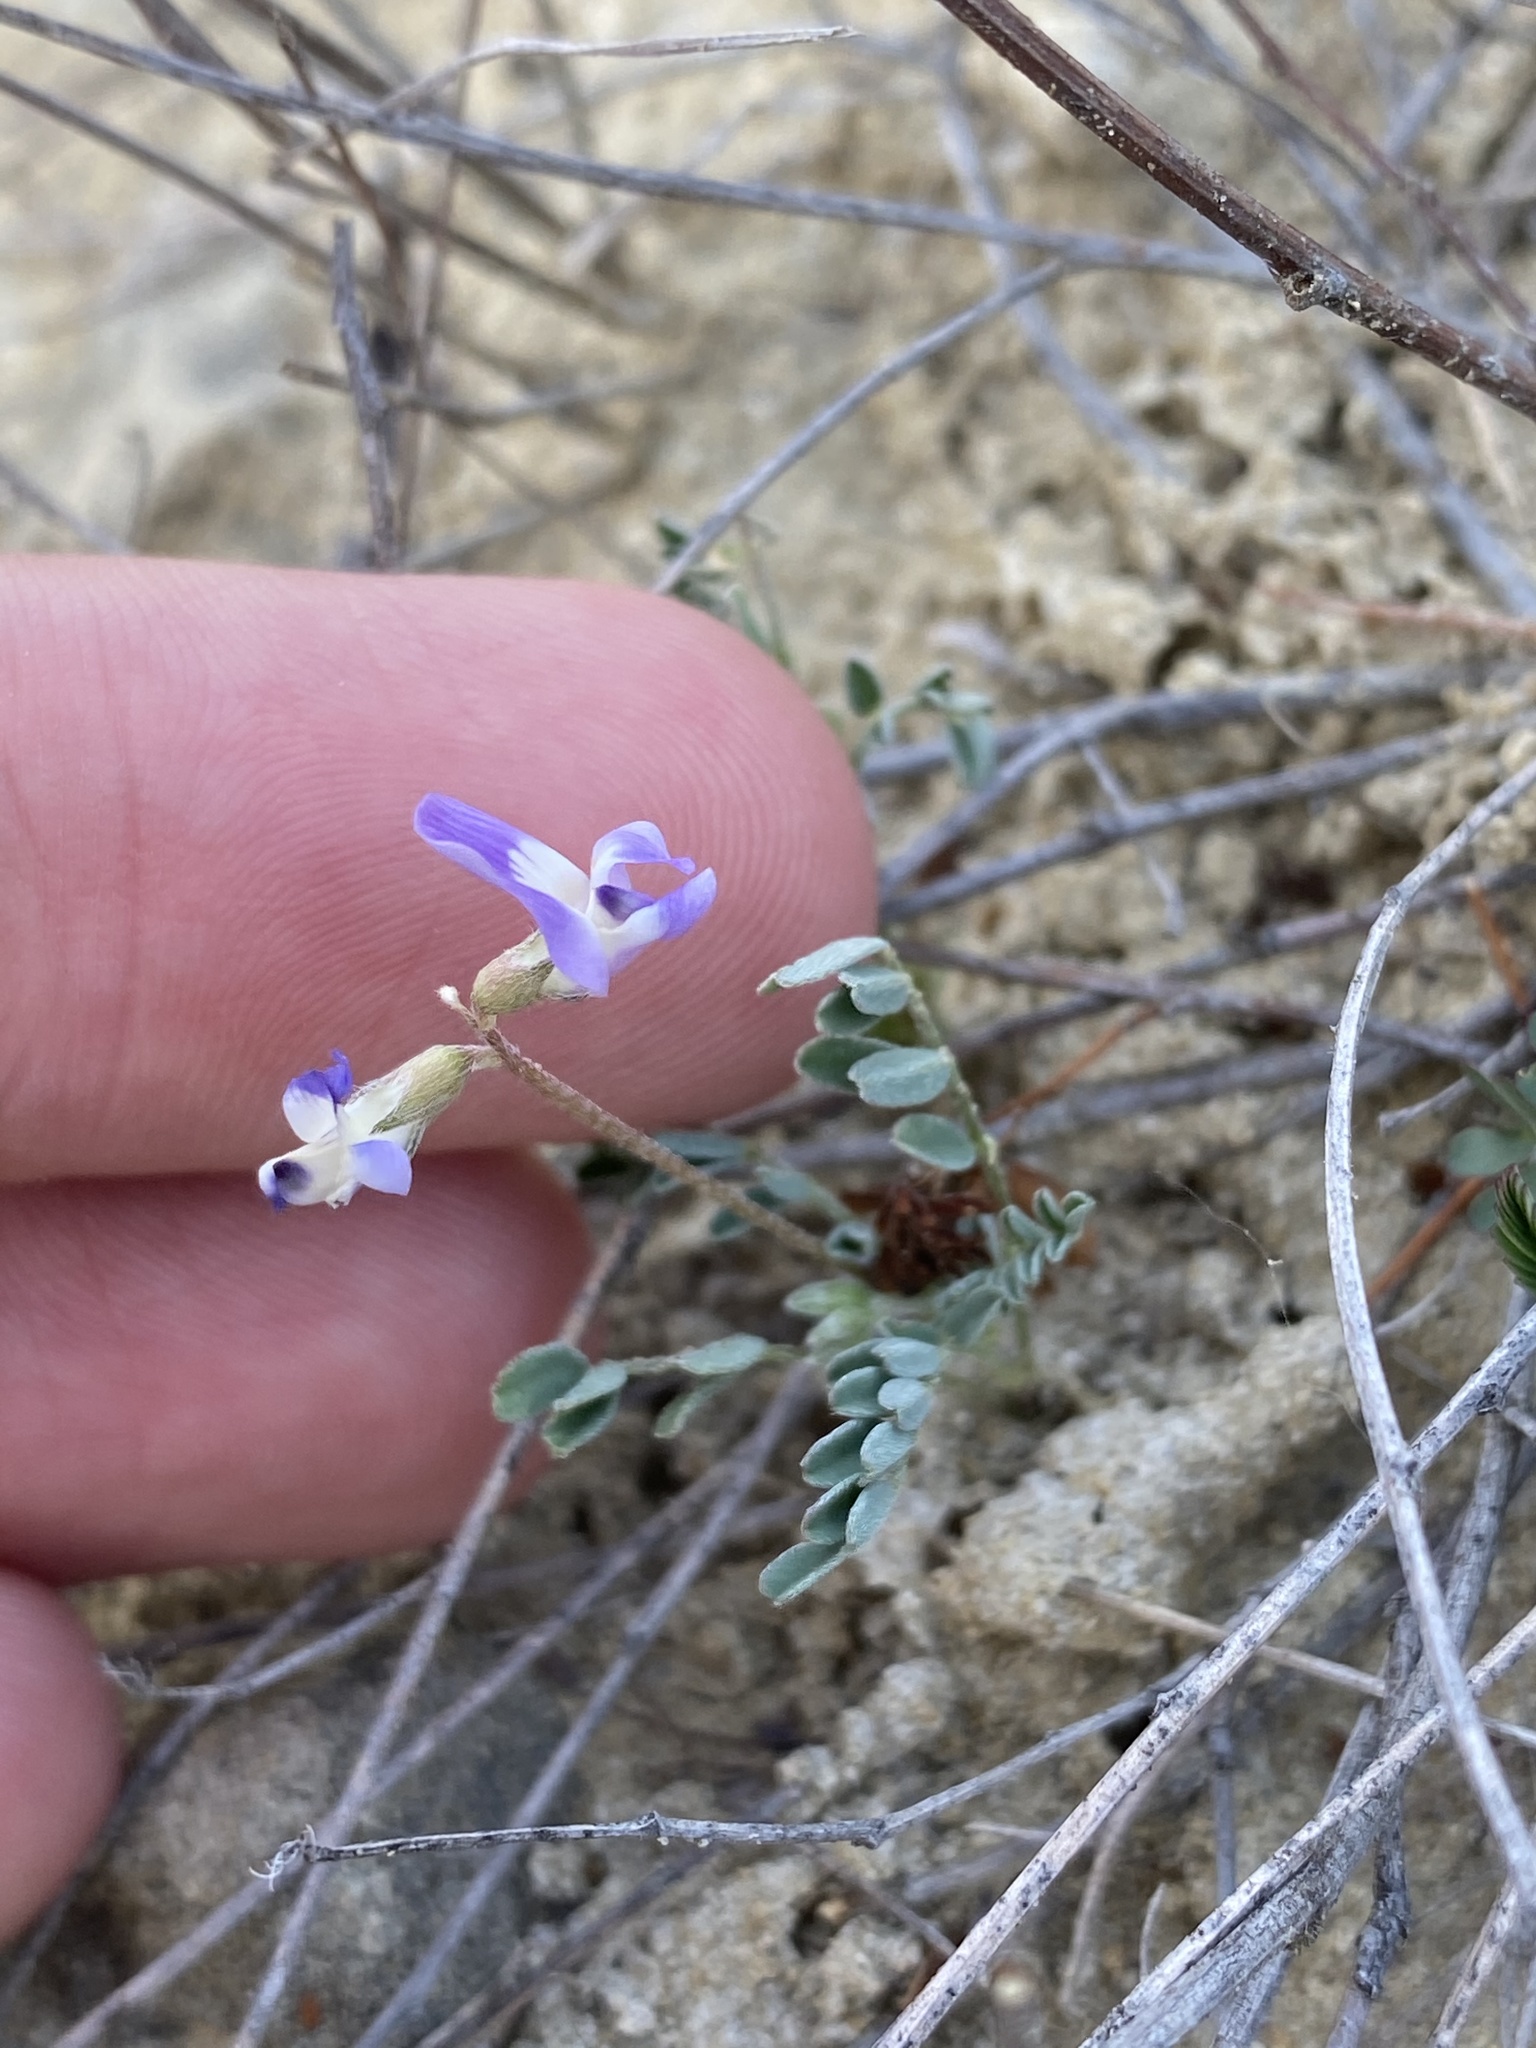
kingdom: Plantae
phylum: Tracheophyta
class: Magnoliopsida
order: Fabales
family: Fabaceae
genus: Astragalus
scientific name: Astragalus emoryanus
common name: Emory's milk-vetch
